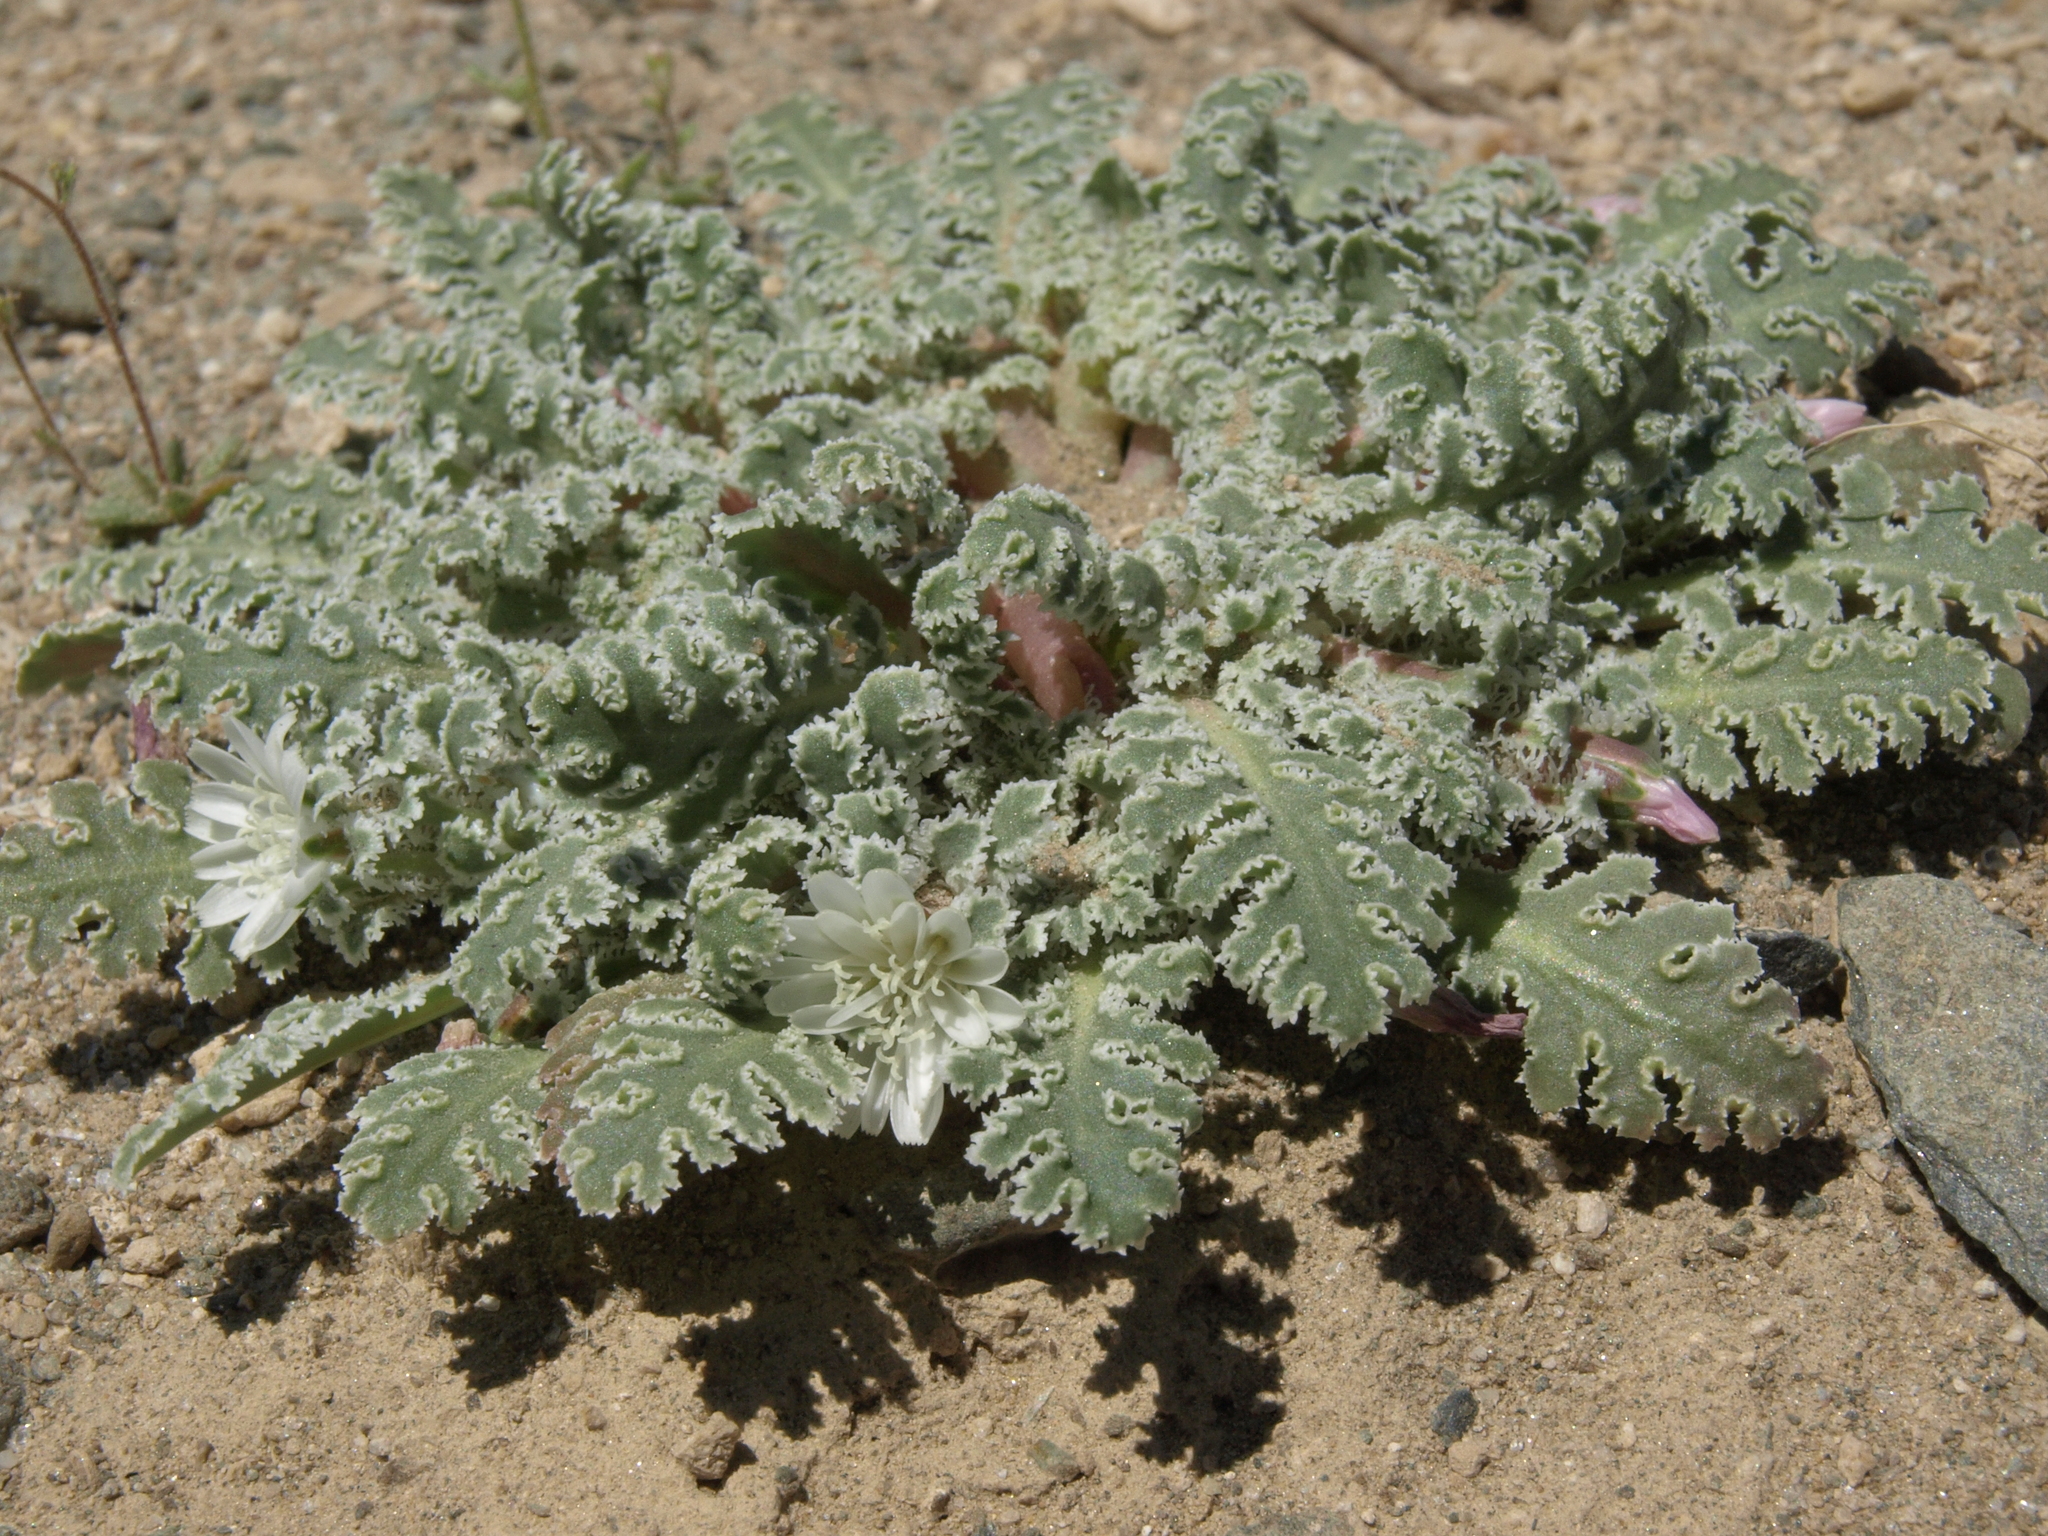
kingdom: Plantae
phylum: Tracheophyta
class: Magnoliopsida
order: Asterales
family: Asteraceae
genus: Glyptopleura
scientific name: Glyptopleura marginata
